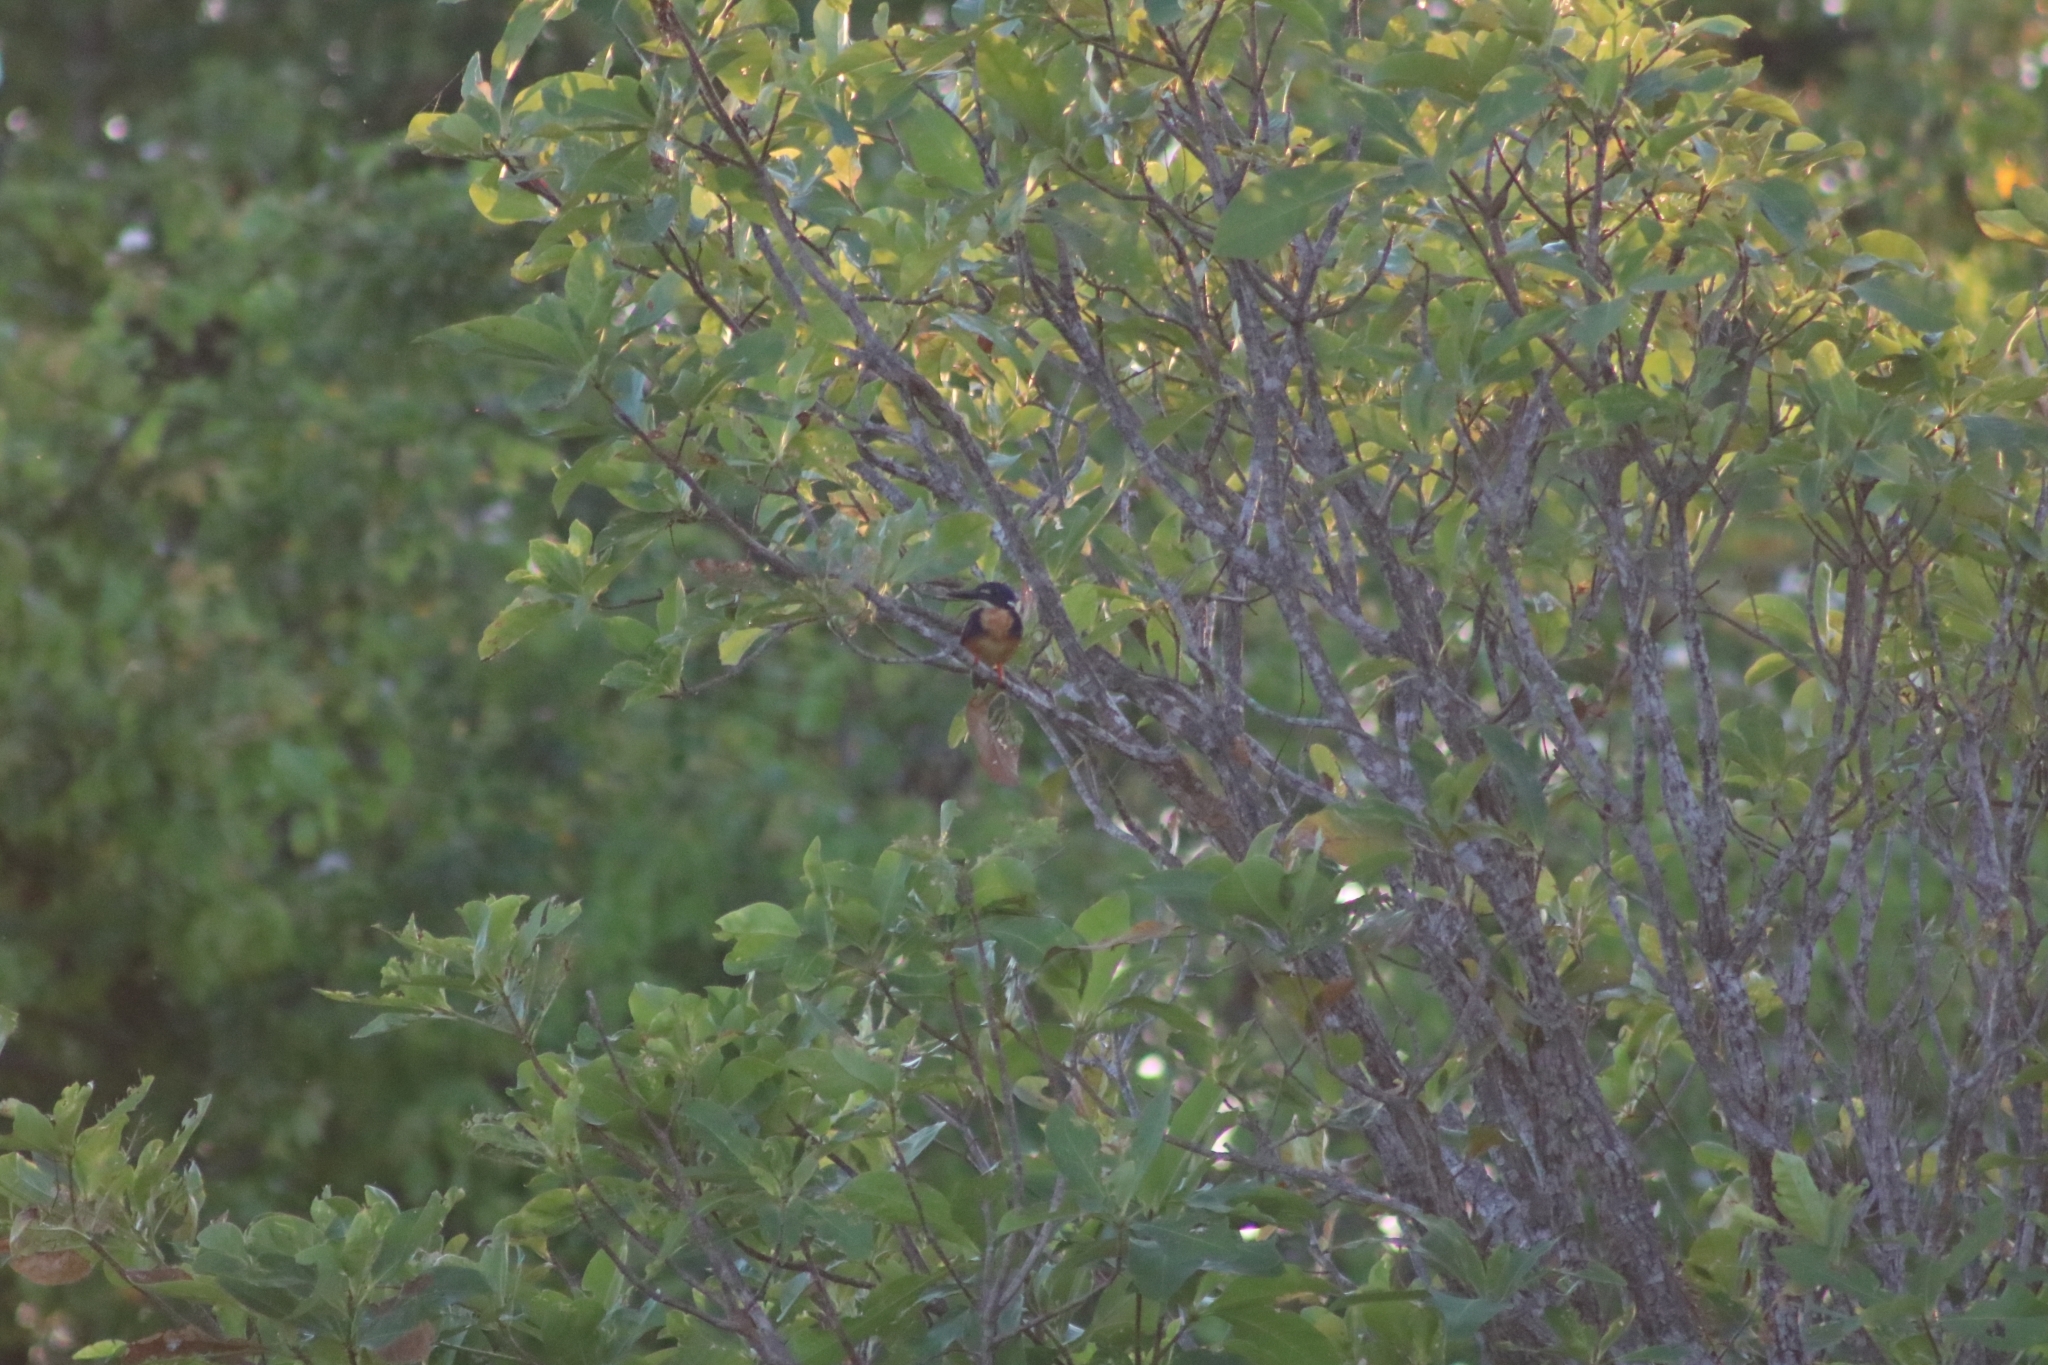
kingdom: Animalia
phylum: Chordata
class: Aves
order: Coraciiformes
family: Alcedinidae
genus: Ceyx
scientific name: Ceyx azureus
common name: Azure kingfisher
